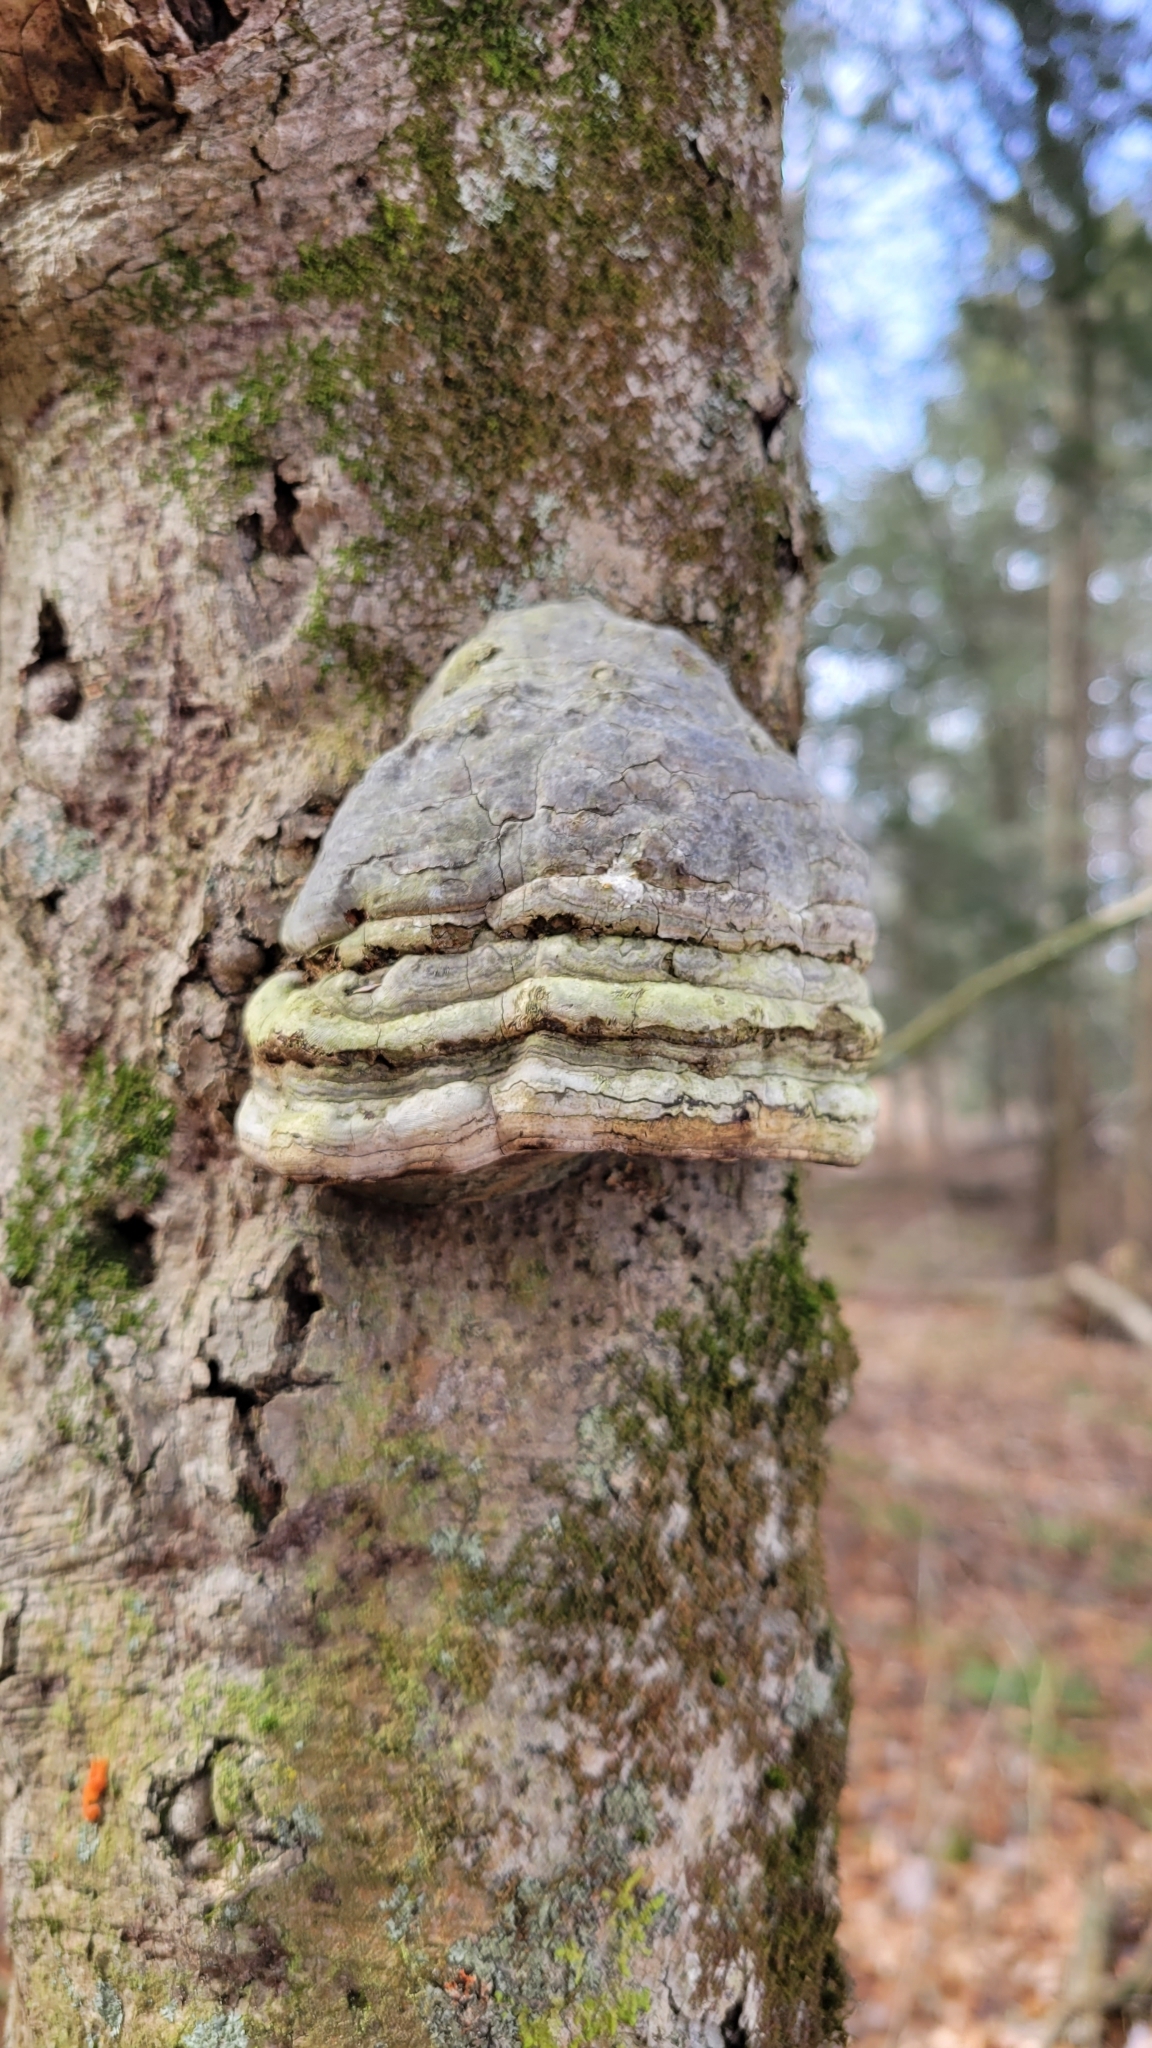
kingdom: Fungi
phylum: Basidiomycota
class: Agaricomycetes
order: Polyporales
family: Polyporaceae
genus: Fomes
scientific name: Fomes fomentarius
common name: Hoof fungus
